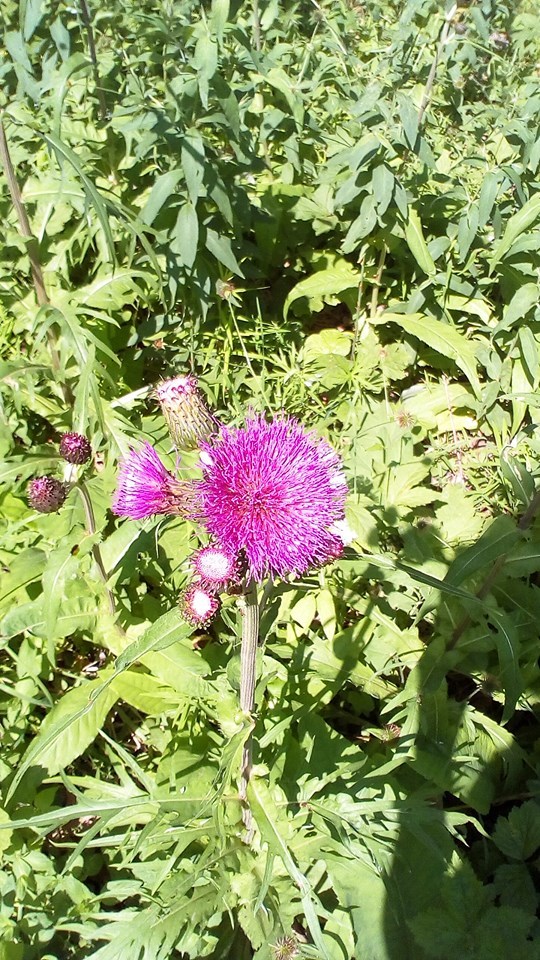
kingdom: Plantae
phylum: Tracheophyta
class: Magnoliopsida
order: Asterales
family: Asteraceae
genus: Cirsium
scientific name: Cirsium heterophyllum
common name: Melancholy thistle
